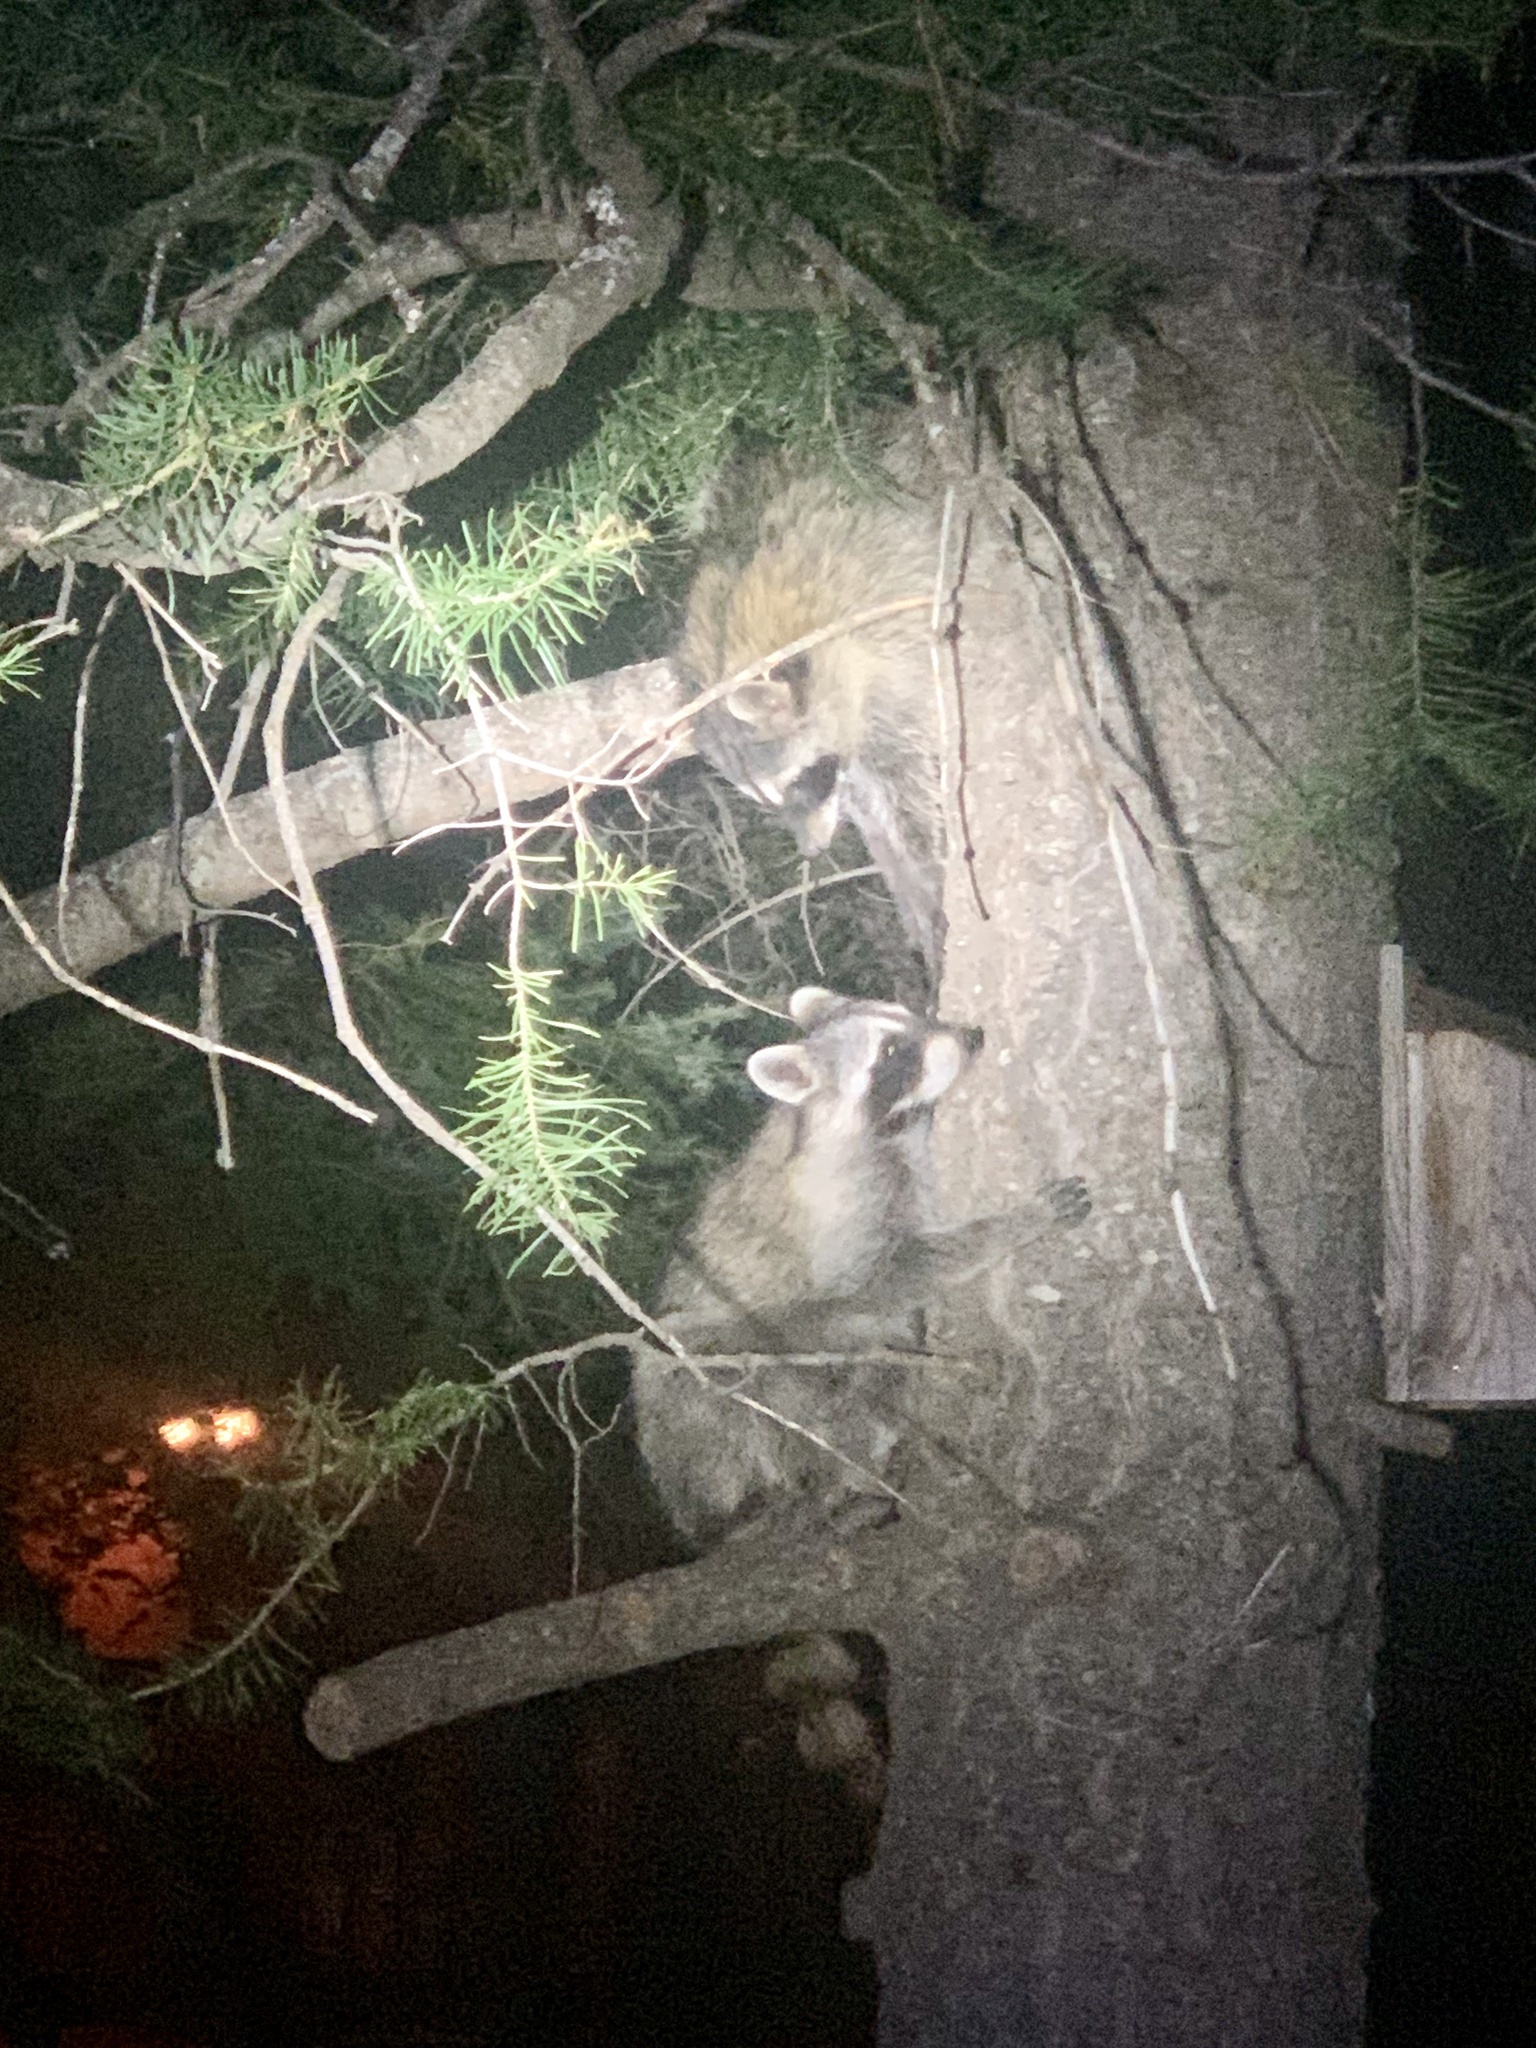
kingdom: Animalia
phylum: Chordata
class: Mammalia
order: Carnivora
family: Procyonidae
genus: Procyon
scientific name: Procyon lotor
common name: Raccoon
